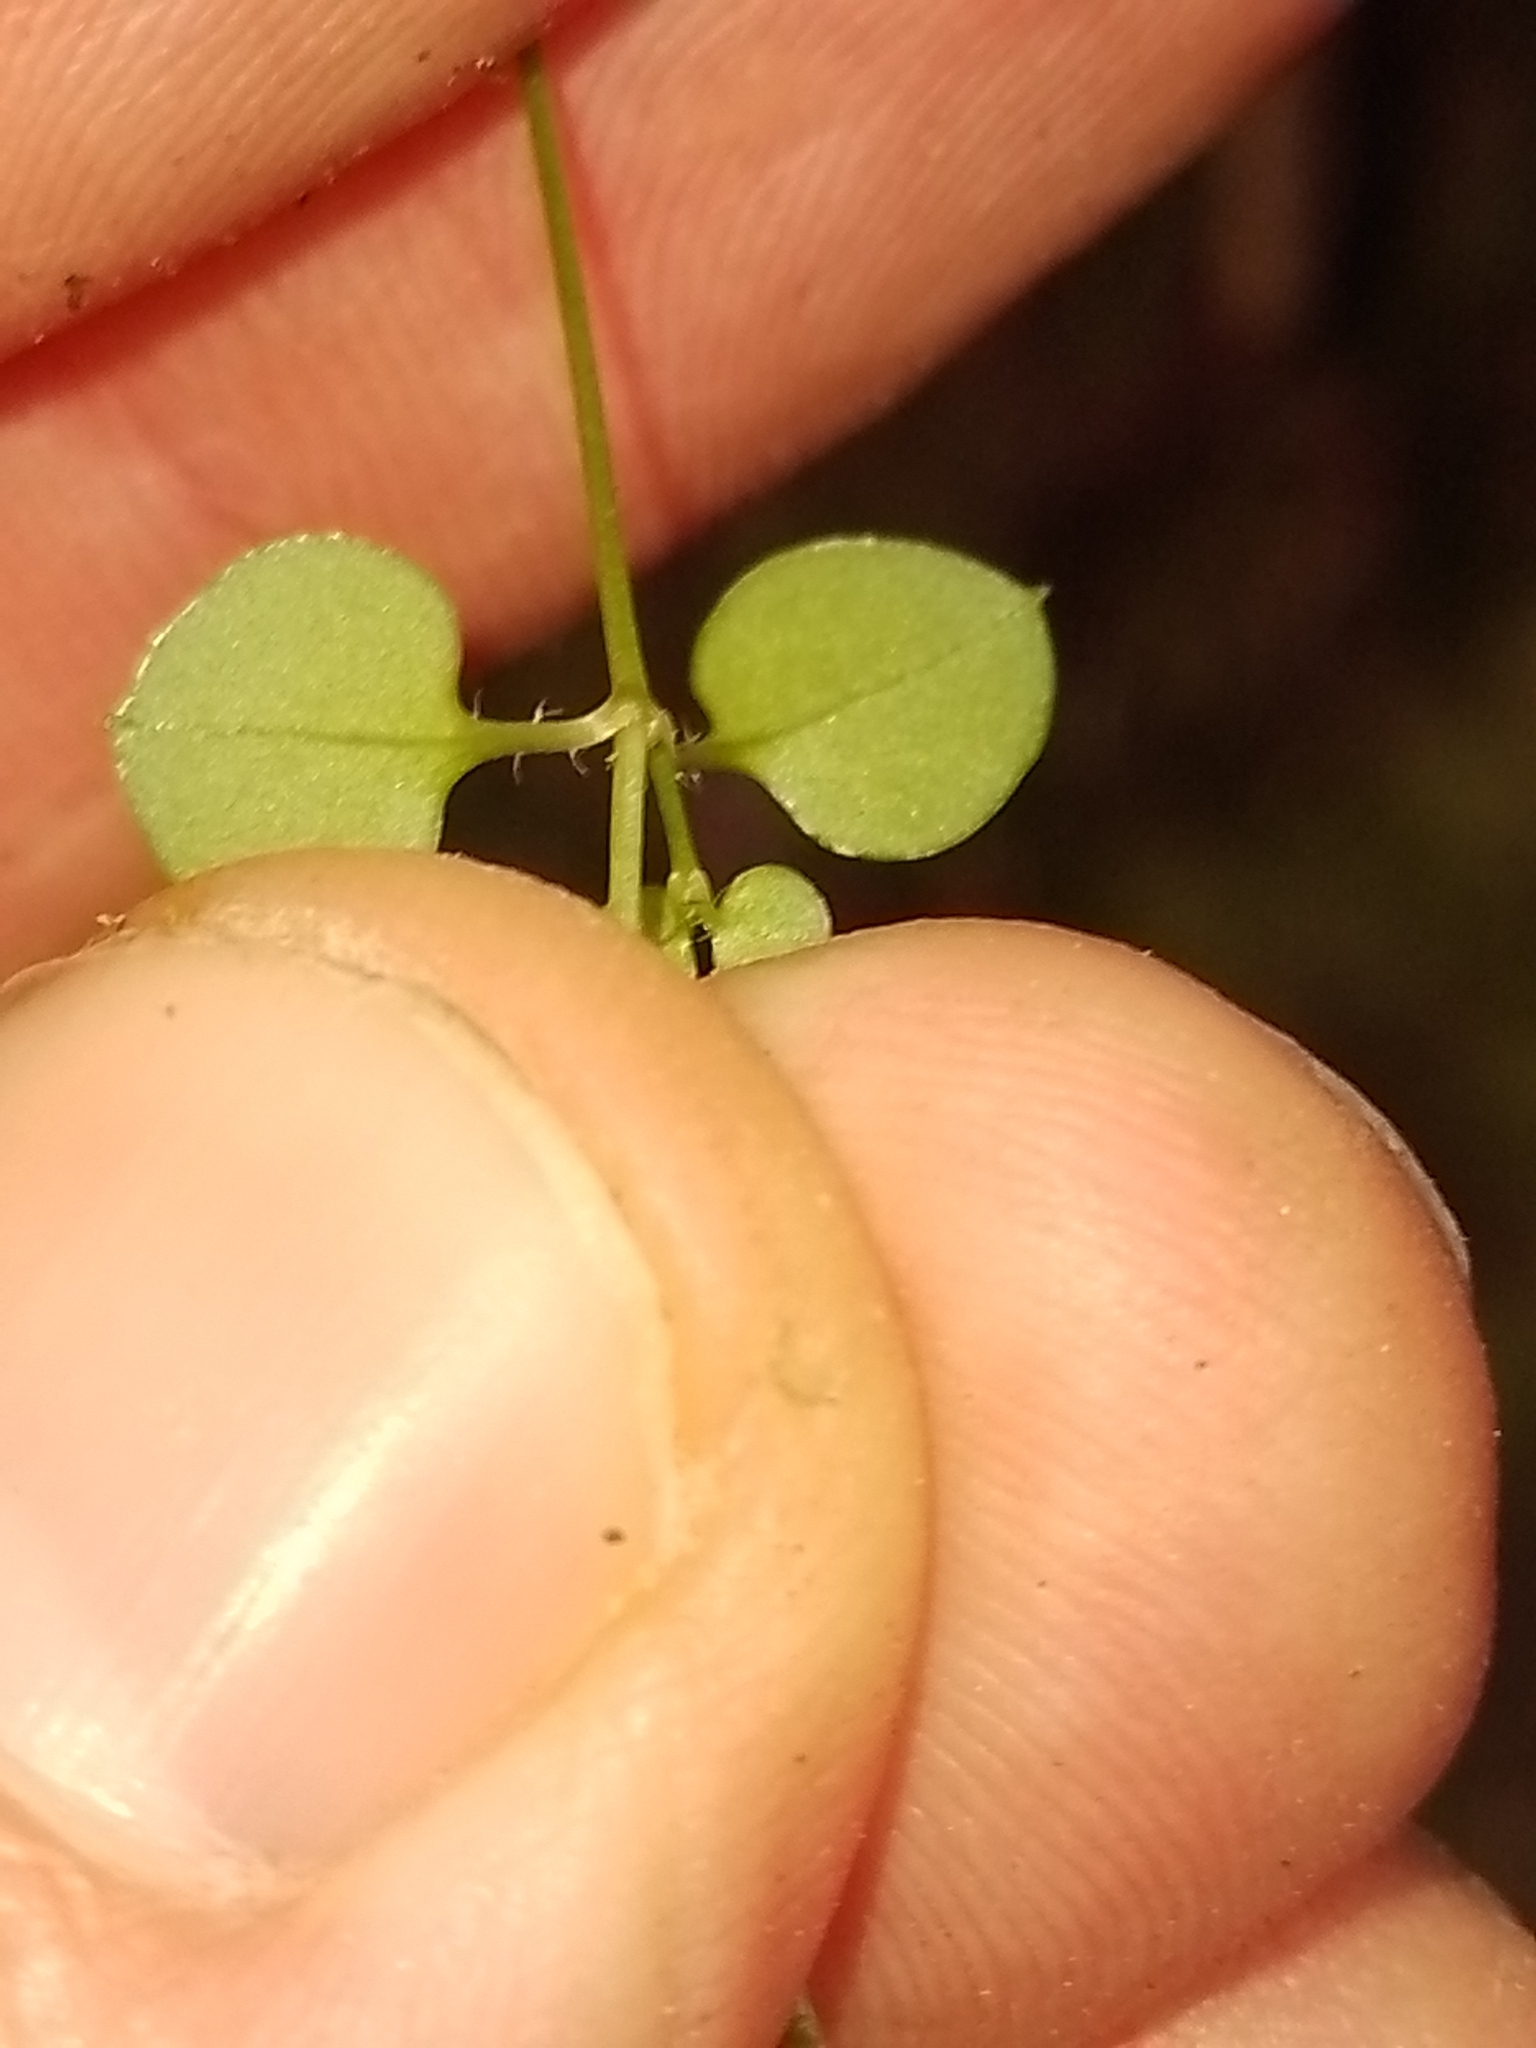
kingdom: Plantae
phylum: Tracheophyta
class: Magnoliopsida
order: Caryophyllales
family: Caryophyllaceae
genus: Stellaria
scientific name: Stellaria parviflora
